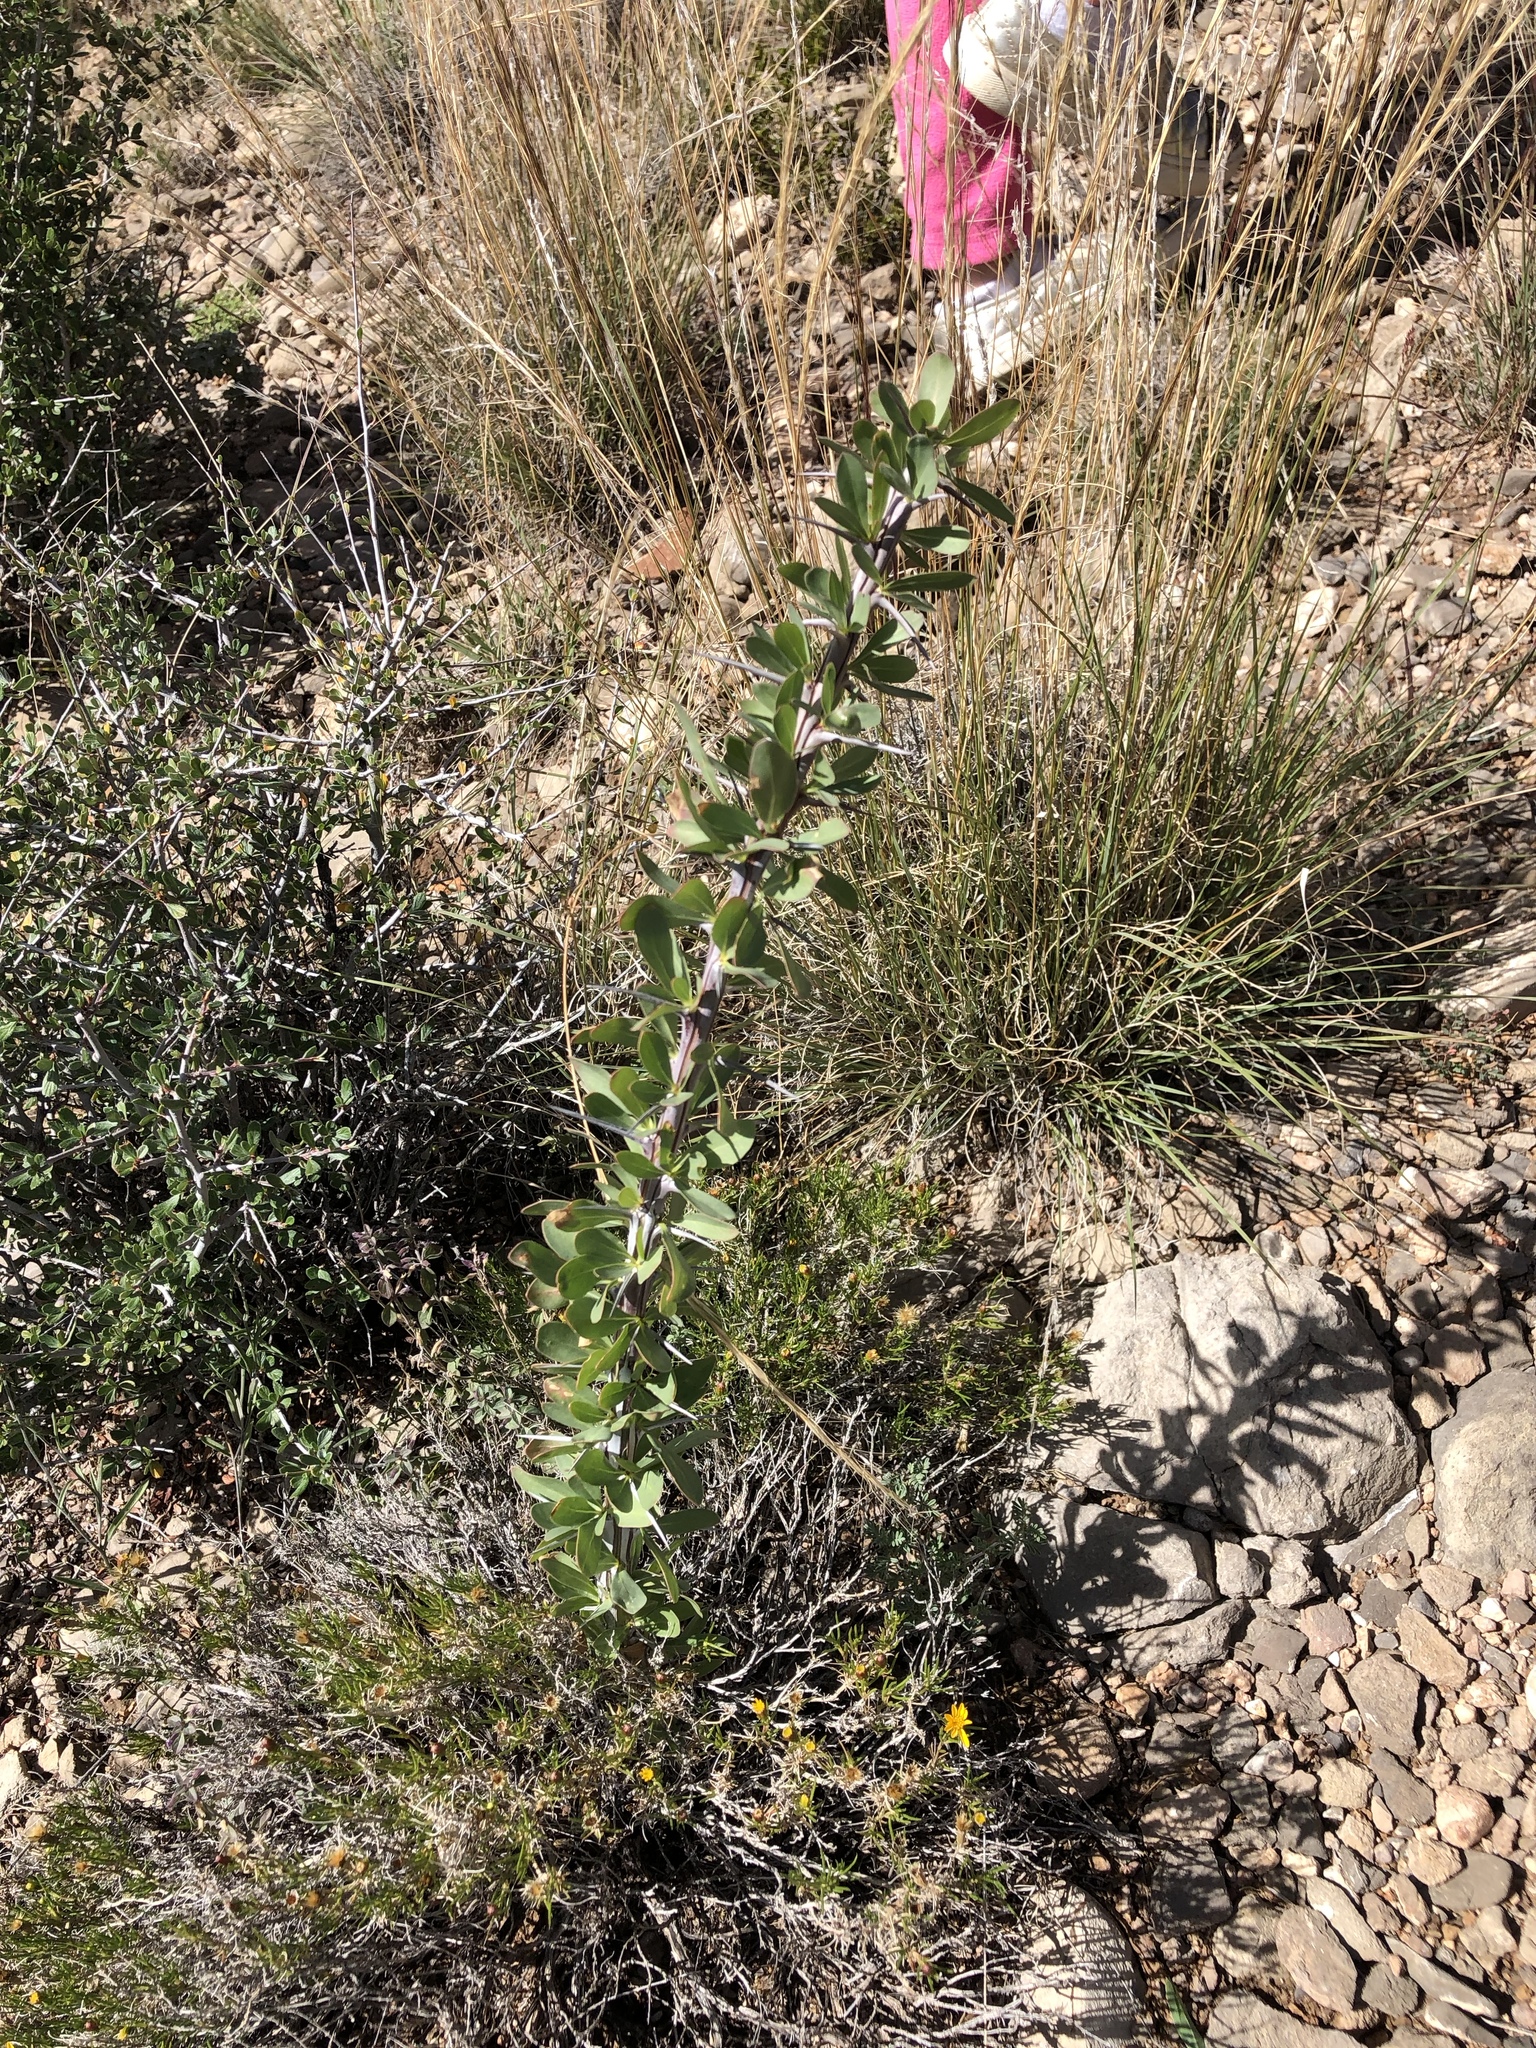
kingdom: Plantae
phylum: Tracheophyta
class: Magnoliopsida
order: Ericales
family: Fouquieriaceae
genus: Fouquieria
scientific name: Fouquieria splendens
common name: Vine-cactus
